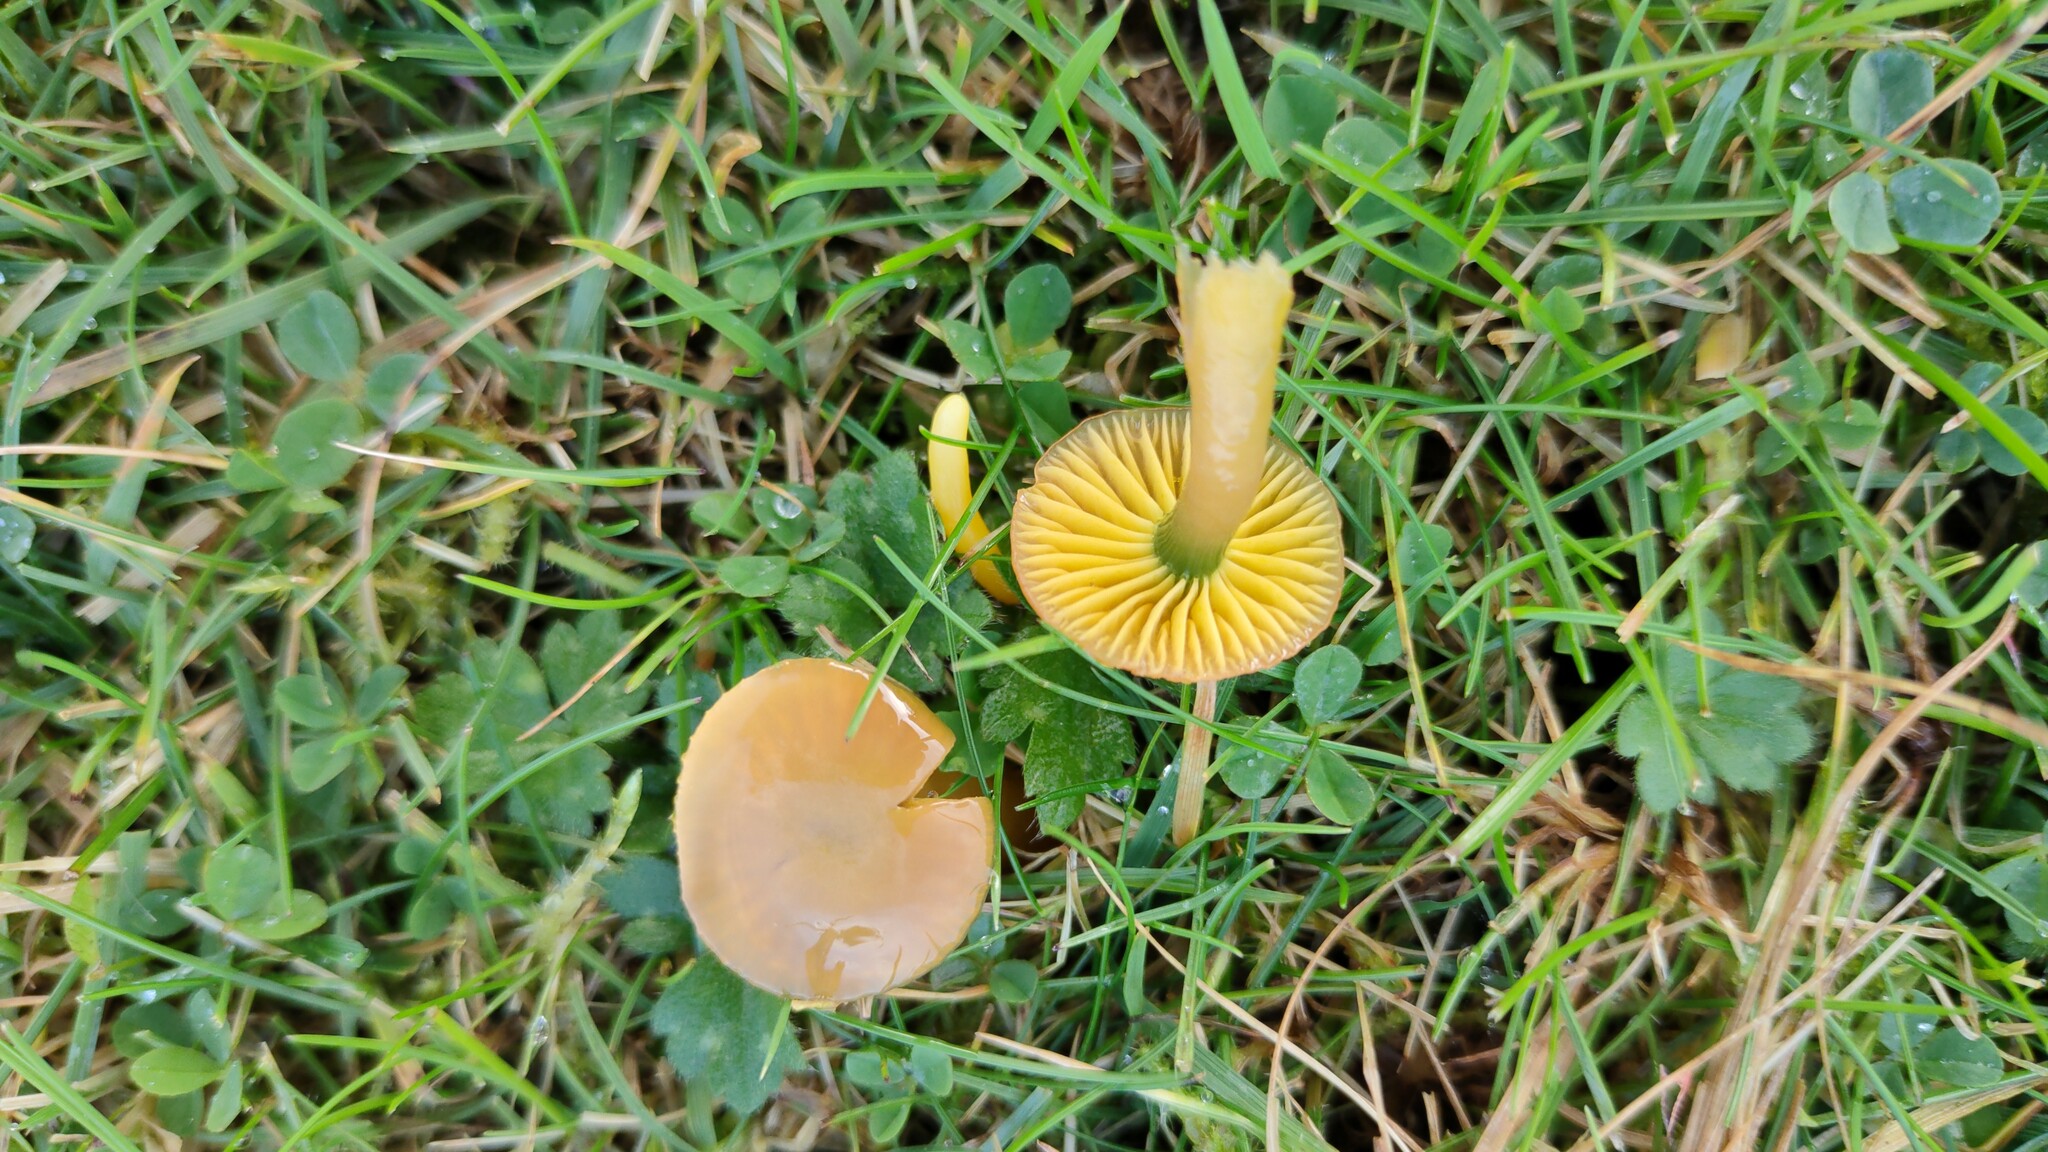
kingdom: Fungi
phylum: Basidiomycota
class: Agaricomycetes
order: Agaricales
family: Hygrophoraceae
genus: Gliophorus
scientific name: Gliophorus psittacinus
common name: Parrot wax-cap
